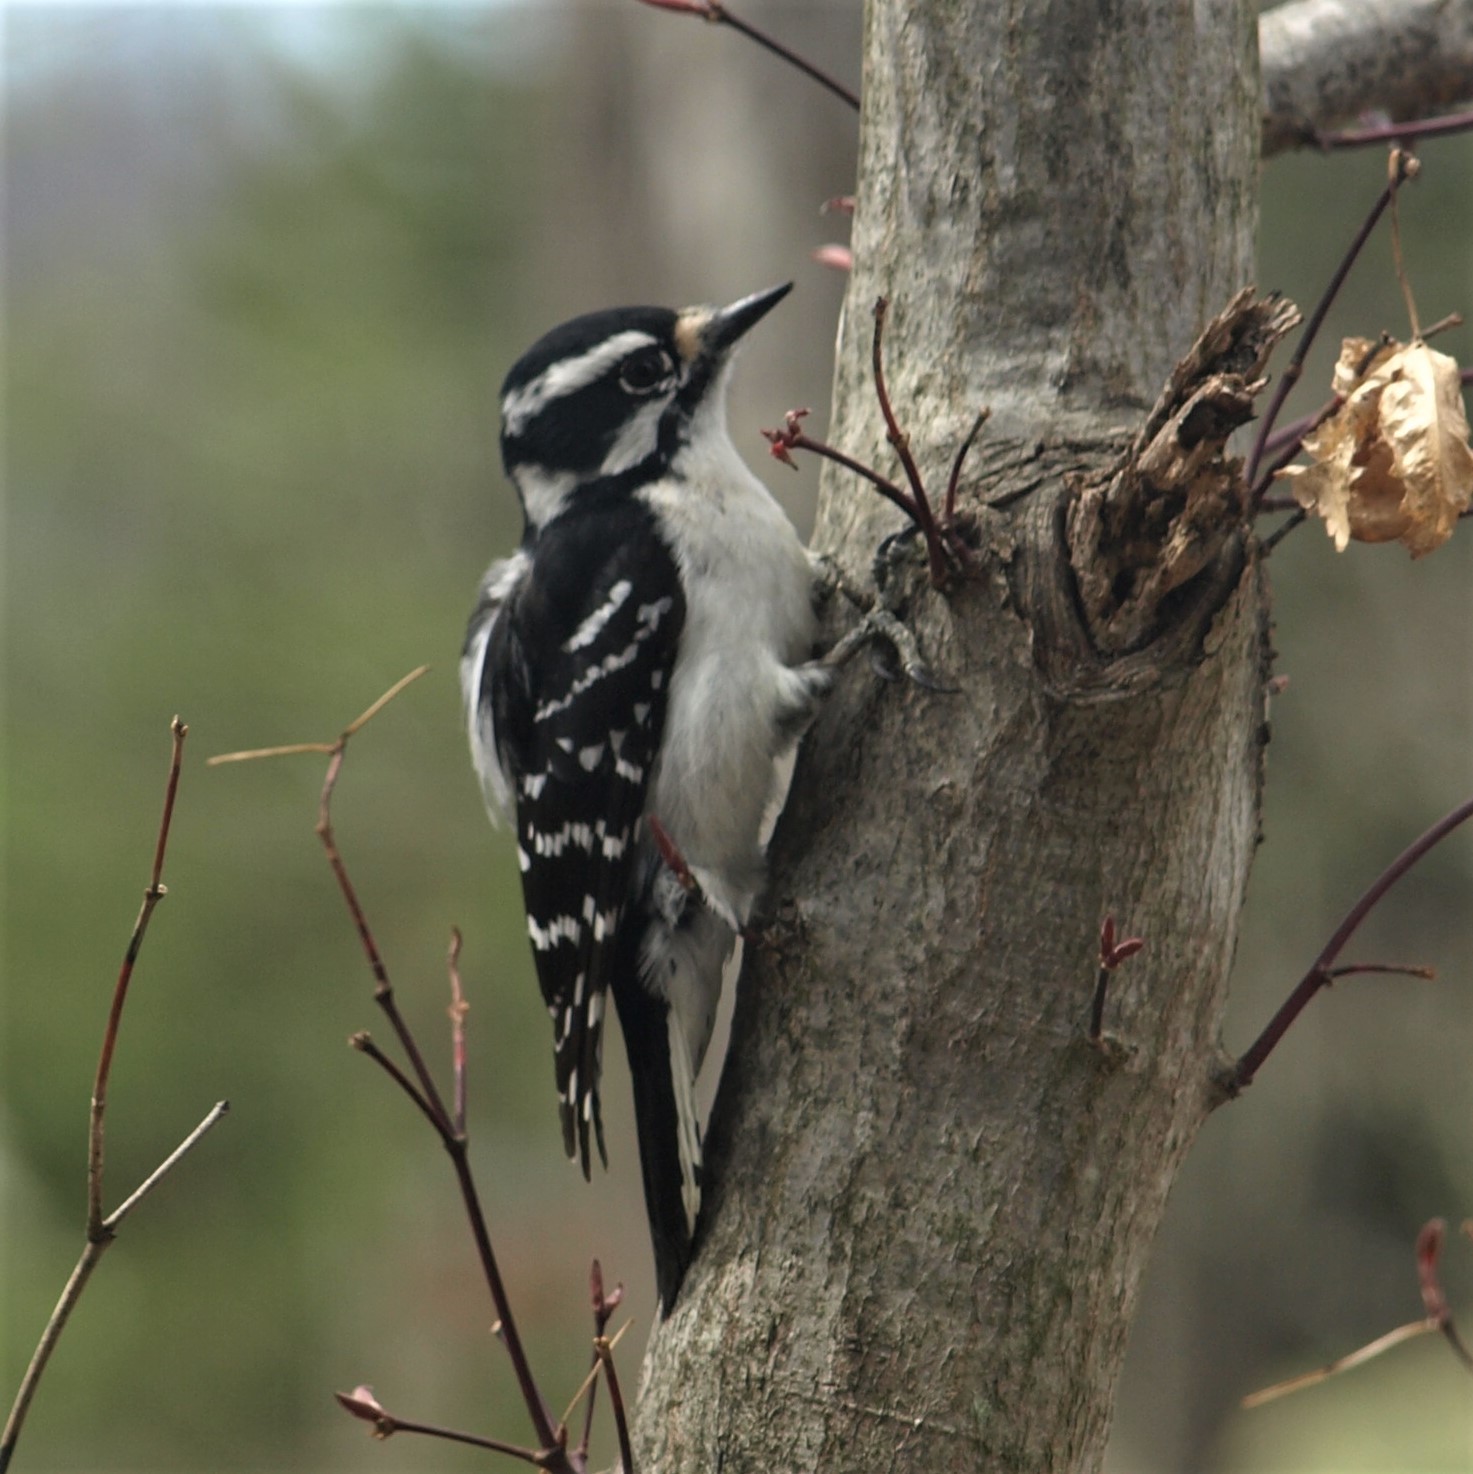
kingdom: Animalia
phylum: Chordata
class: Aves
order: Piciformes
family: Picidae
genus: Dryobates
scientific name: Dryobates pubescens
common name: Downy woodpecker
